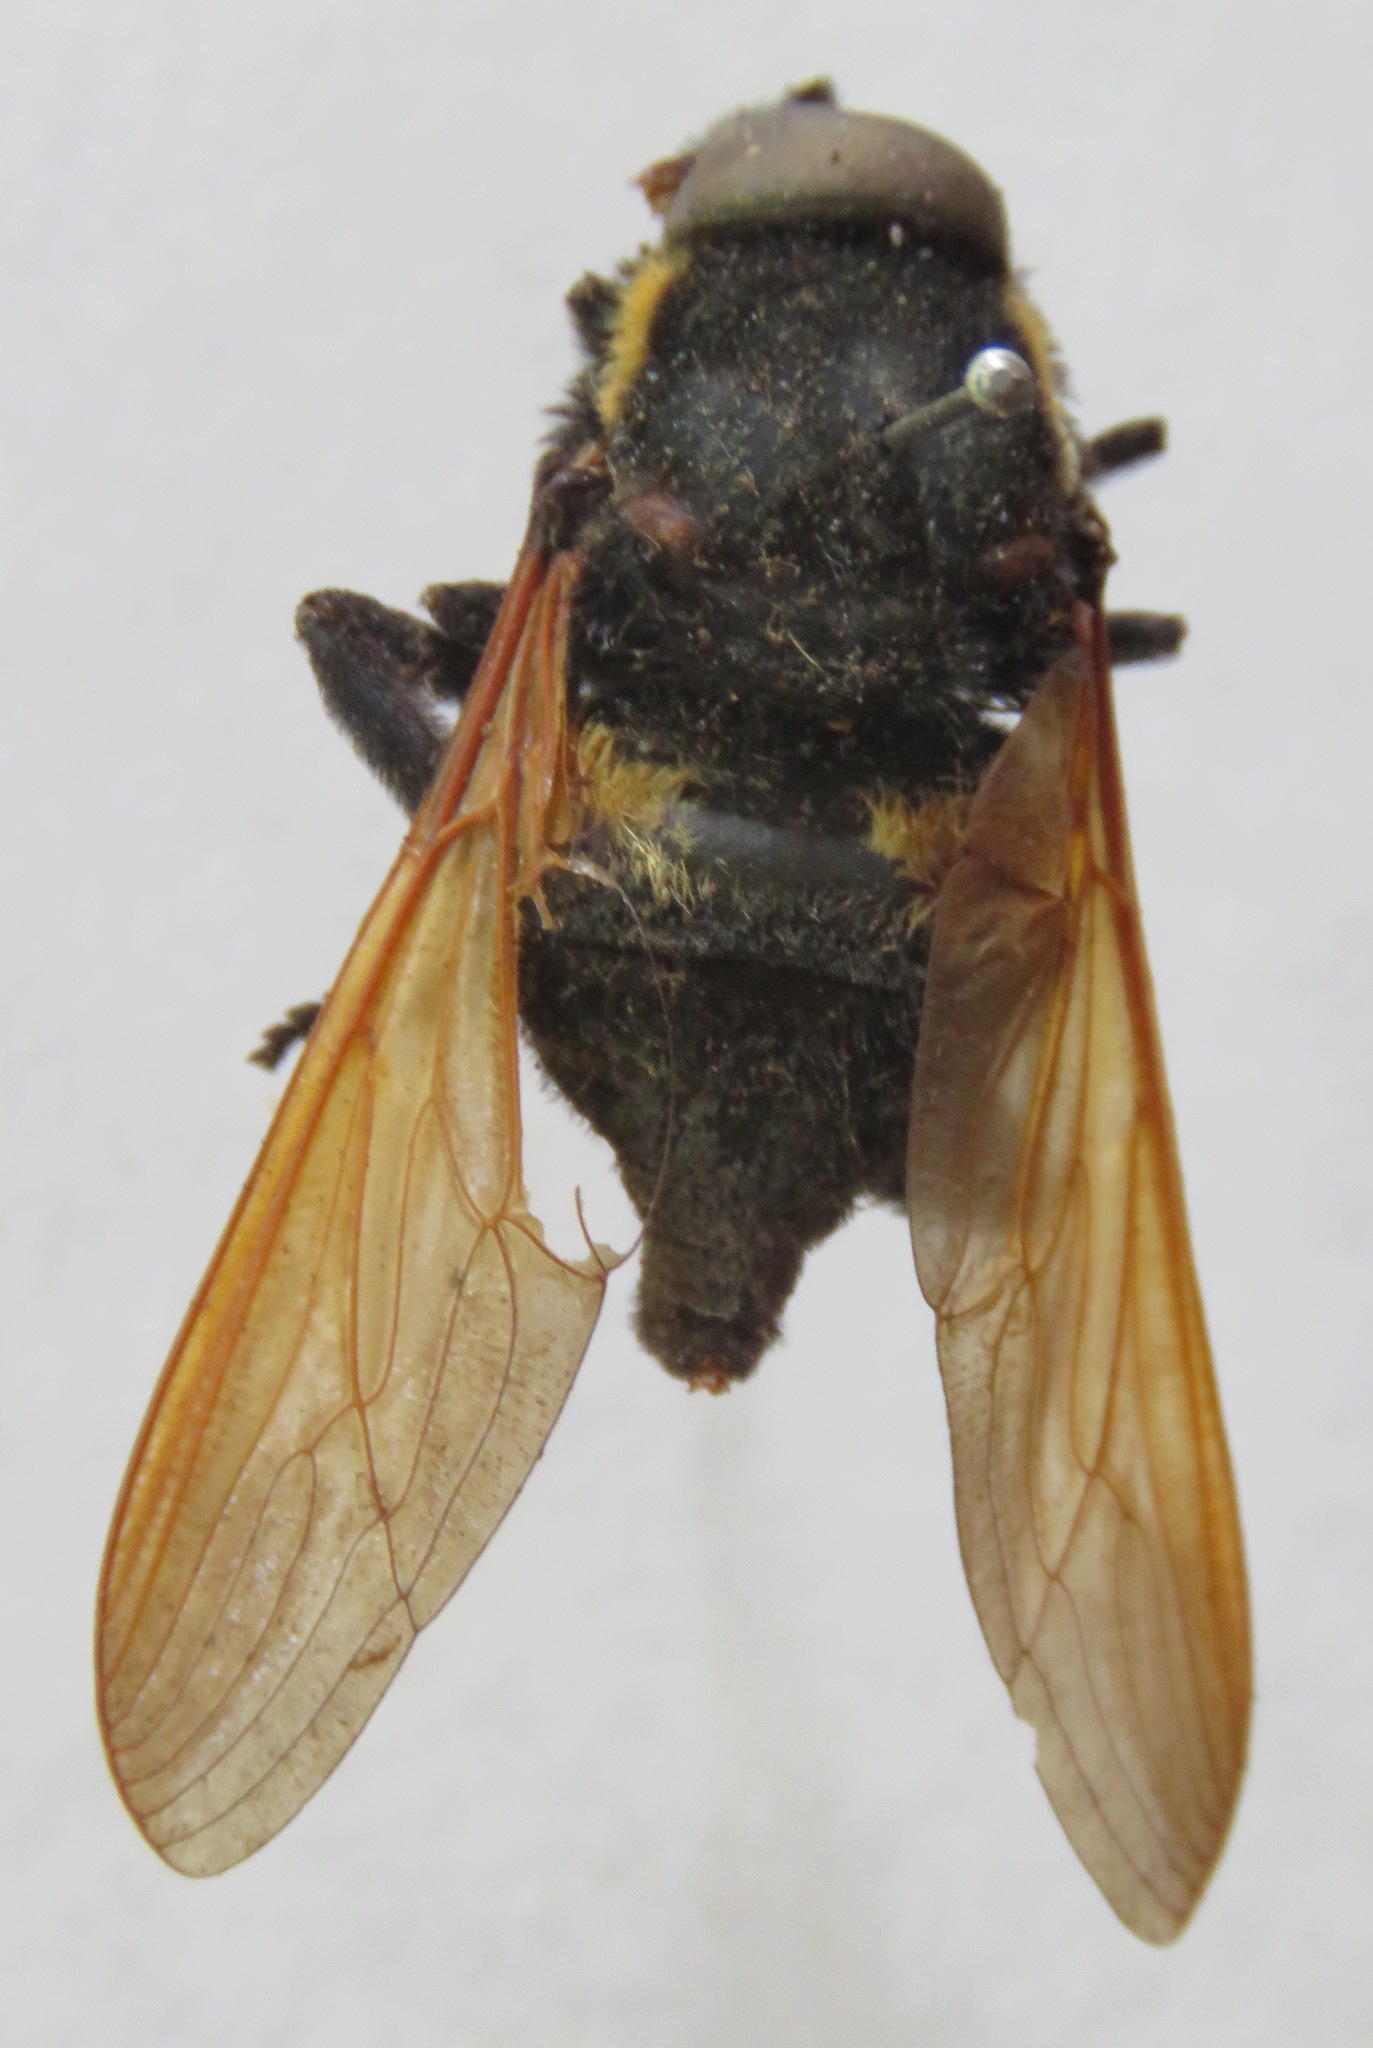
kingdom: Animalia
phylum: Arthropoda
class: Insecta
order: Diptera
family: Nemestrinidae
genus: Hirmoneuropsis
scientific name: Hirmoneuropsis
